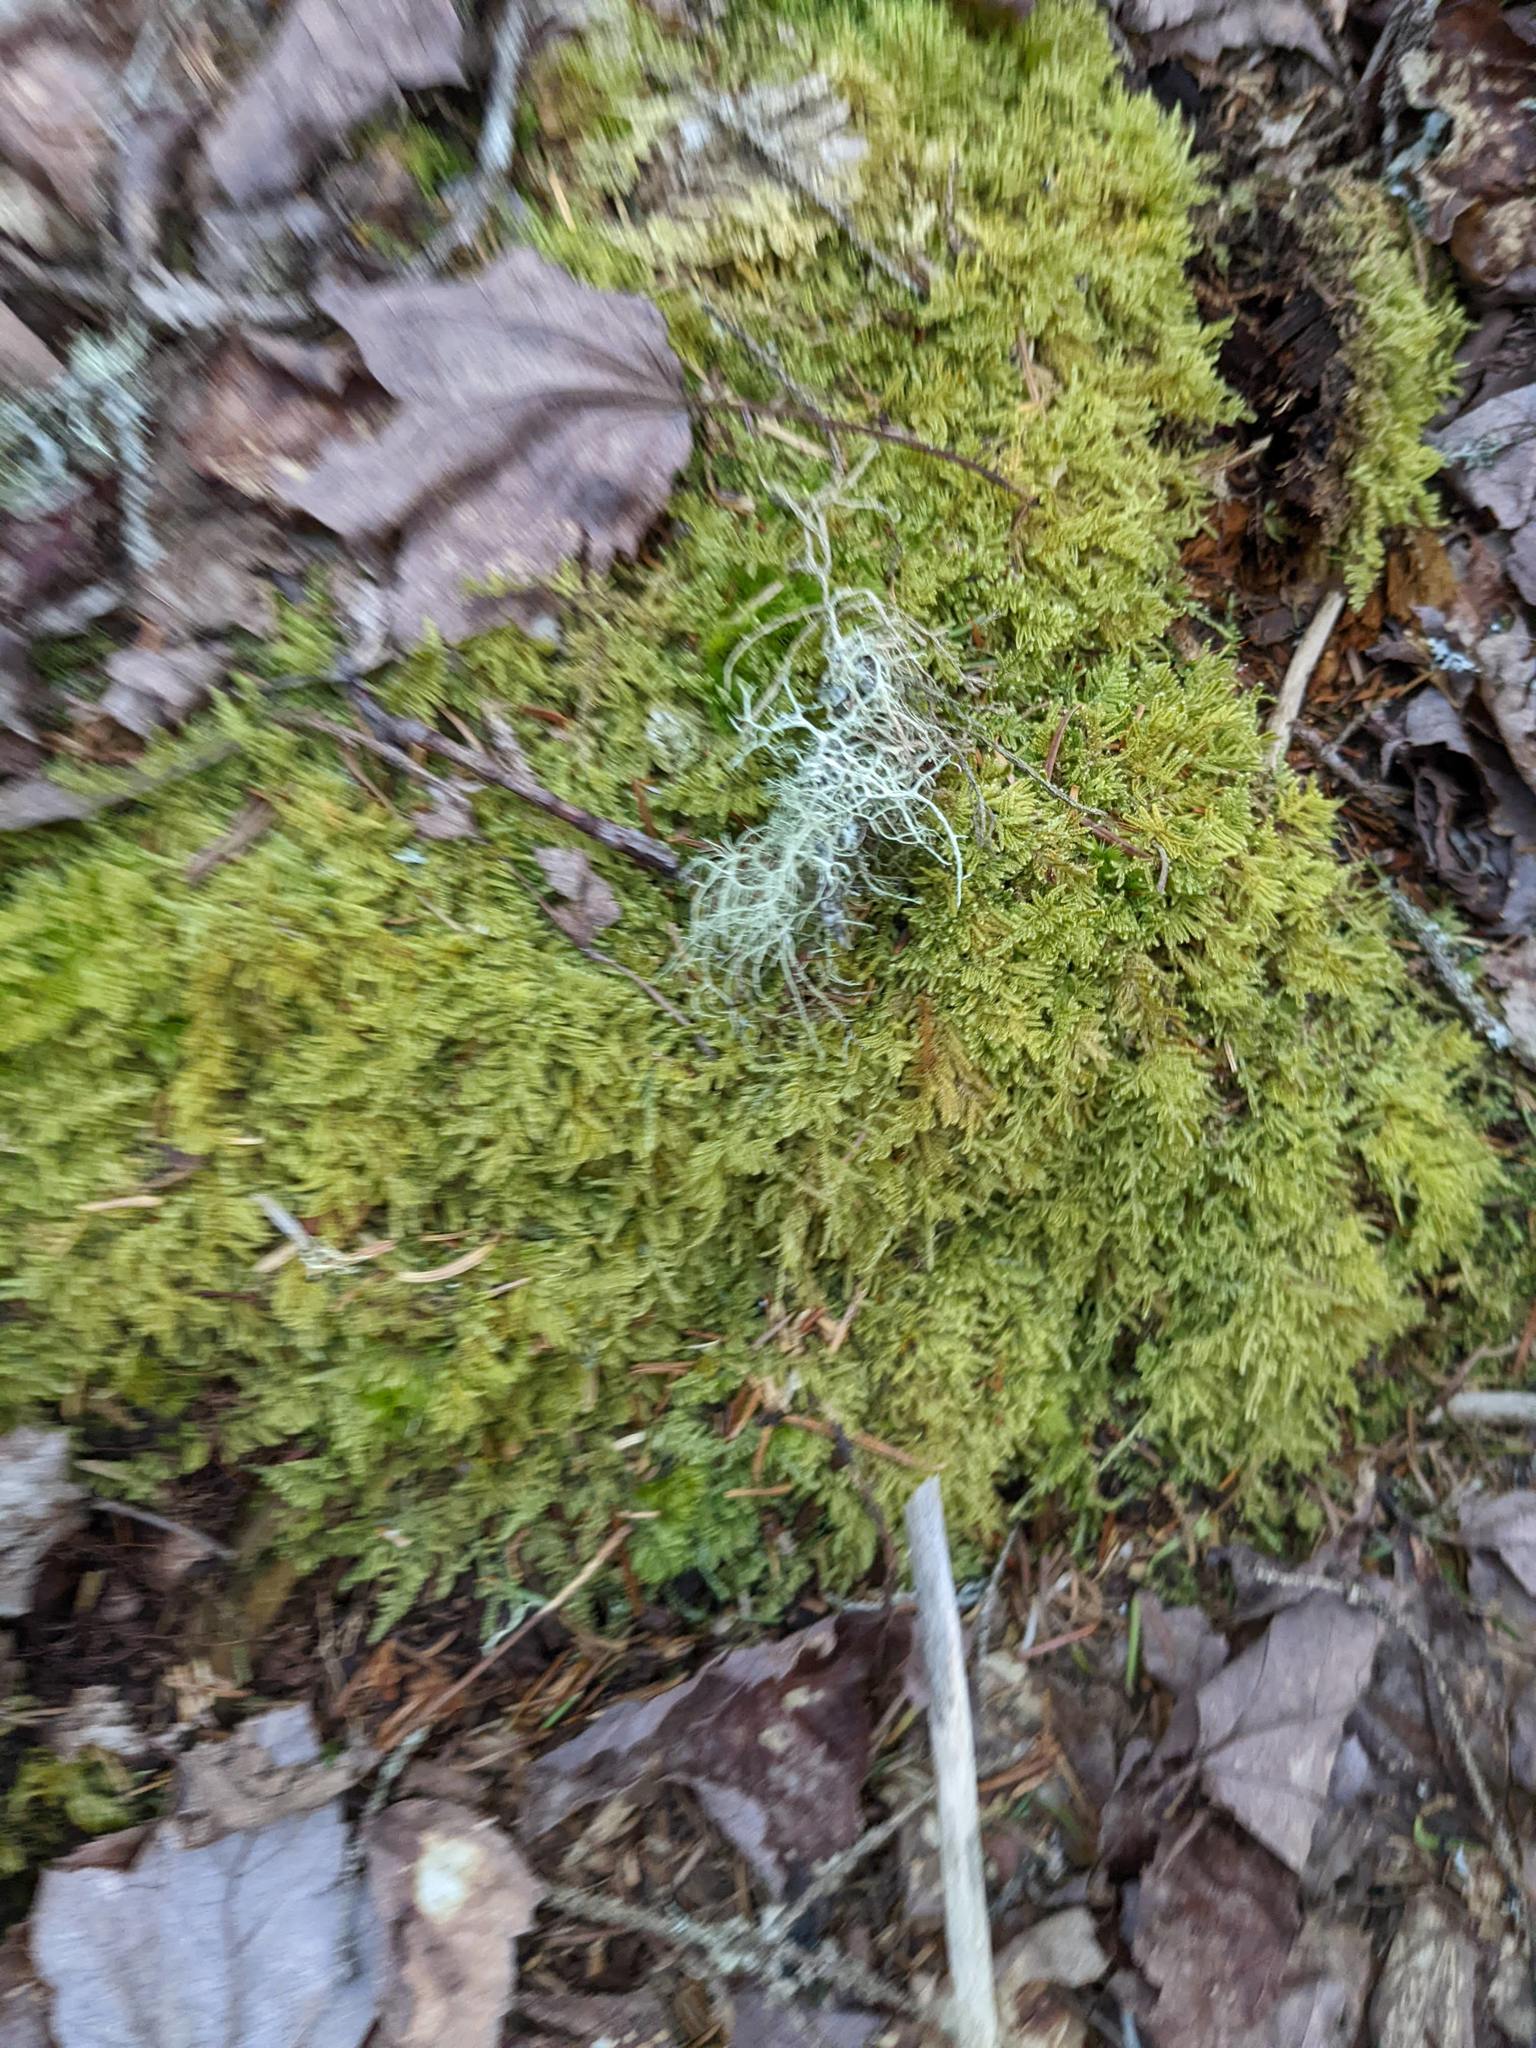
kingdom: Plantae
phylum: Bryophyta
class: Bryopsida
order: Hypnales
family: Callicladiaceae
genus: Callicladium
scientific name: Callicladium imponens
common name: Brocade moss
